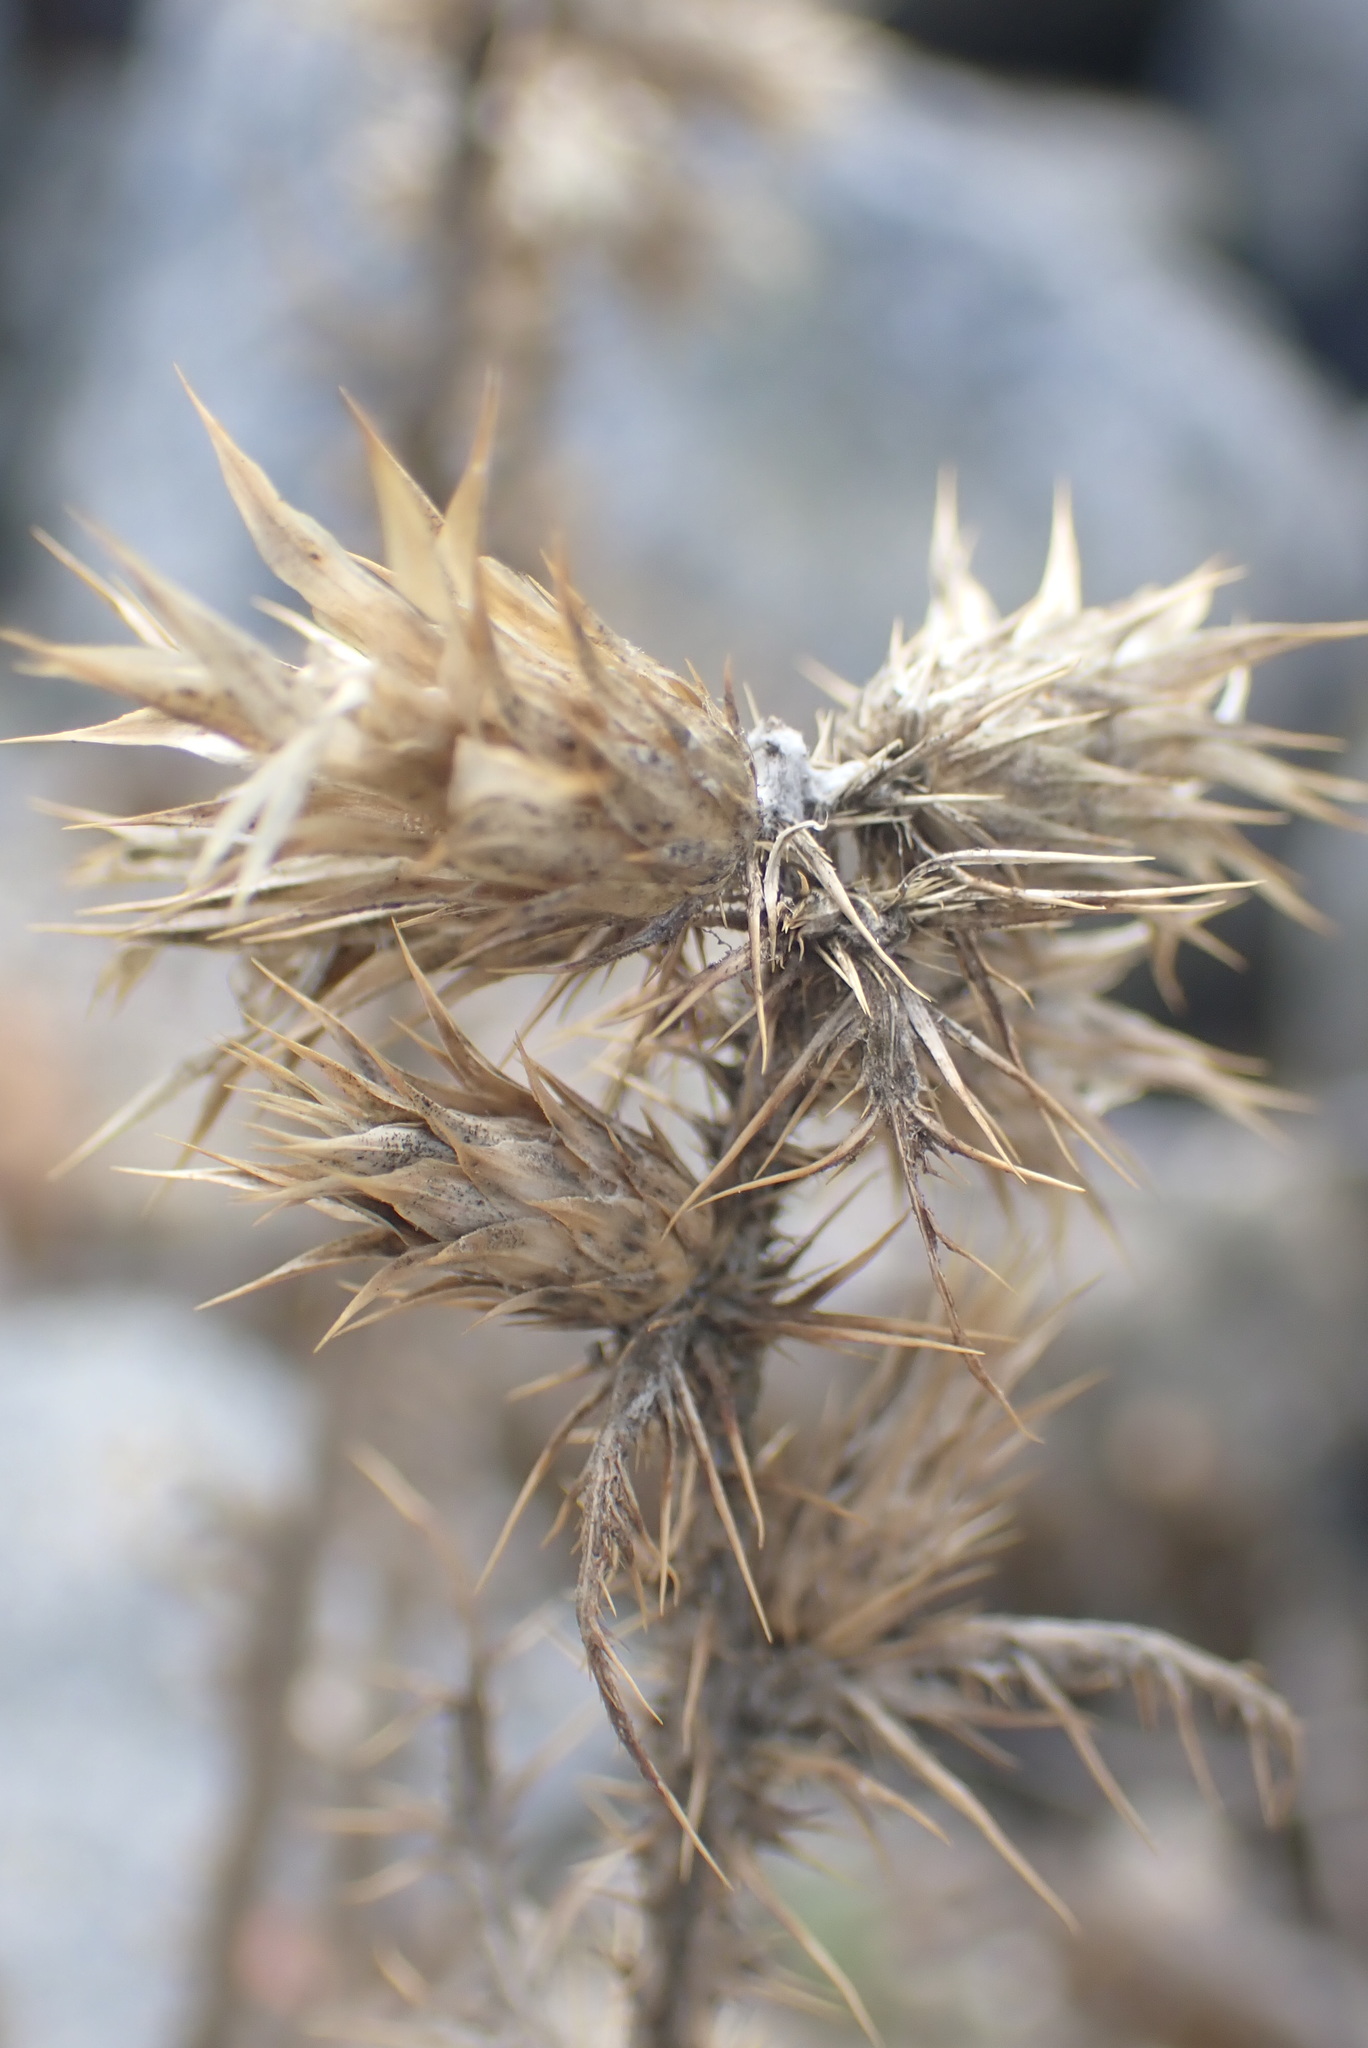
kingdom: Plantae
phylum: Tracheophyta
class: Magnoliopsida
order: Asterales
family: Asteraceae
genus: Carduus
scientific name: Carduus tenuiflorus
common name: Slender thistle
